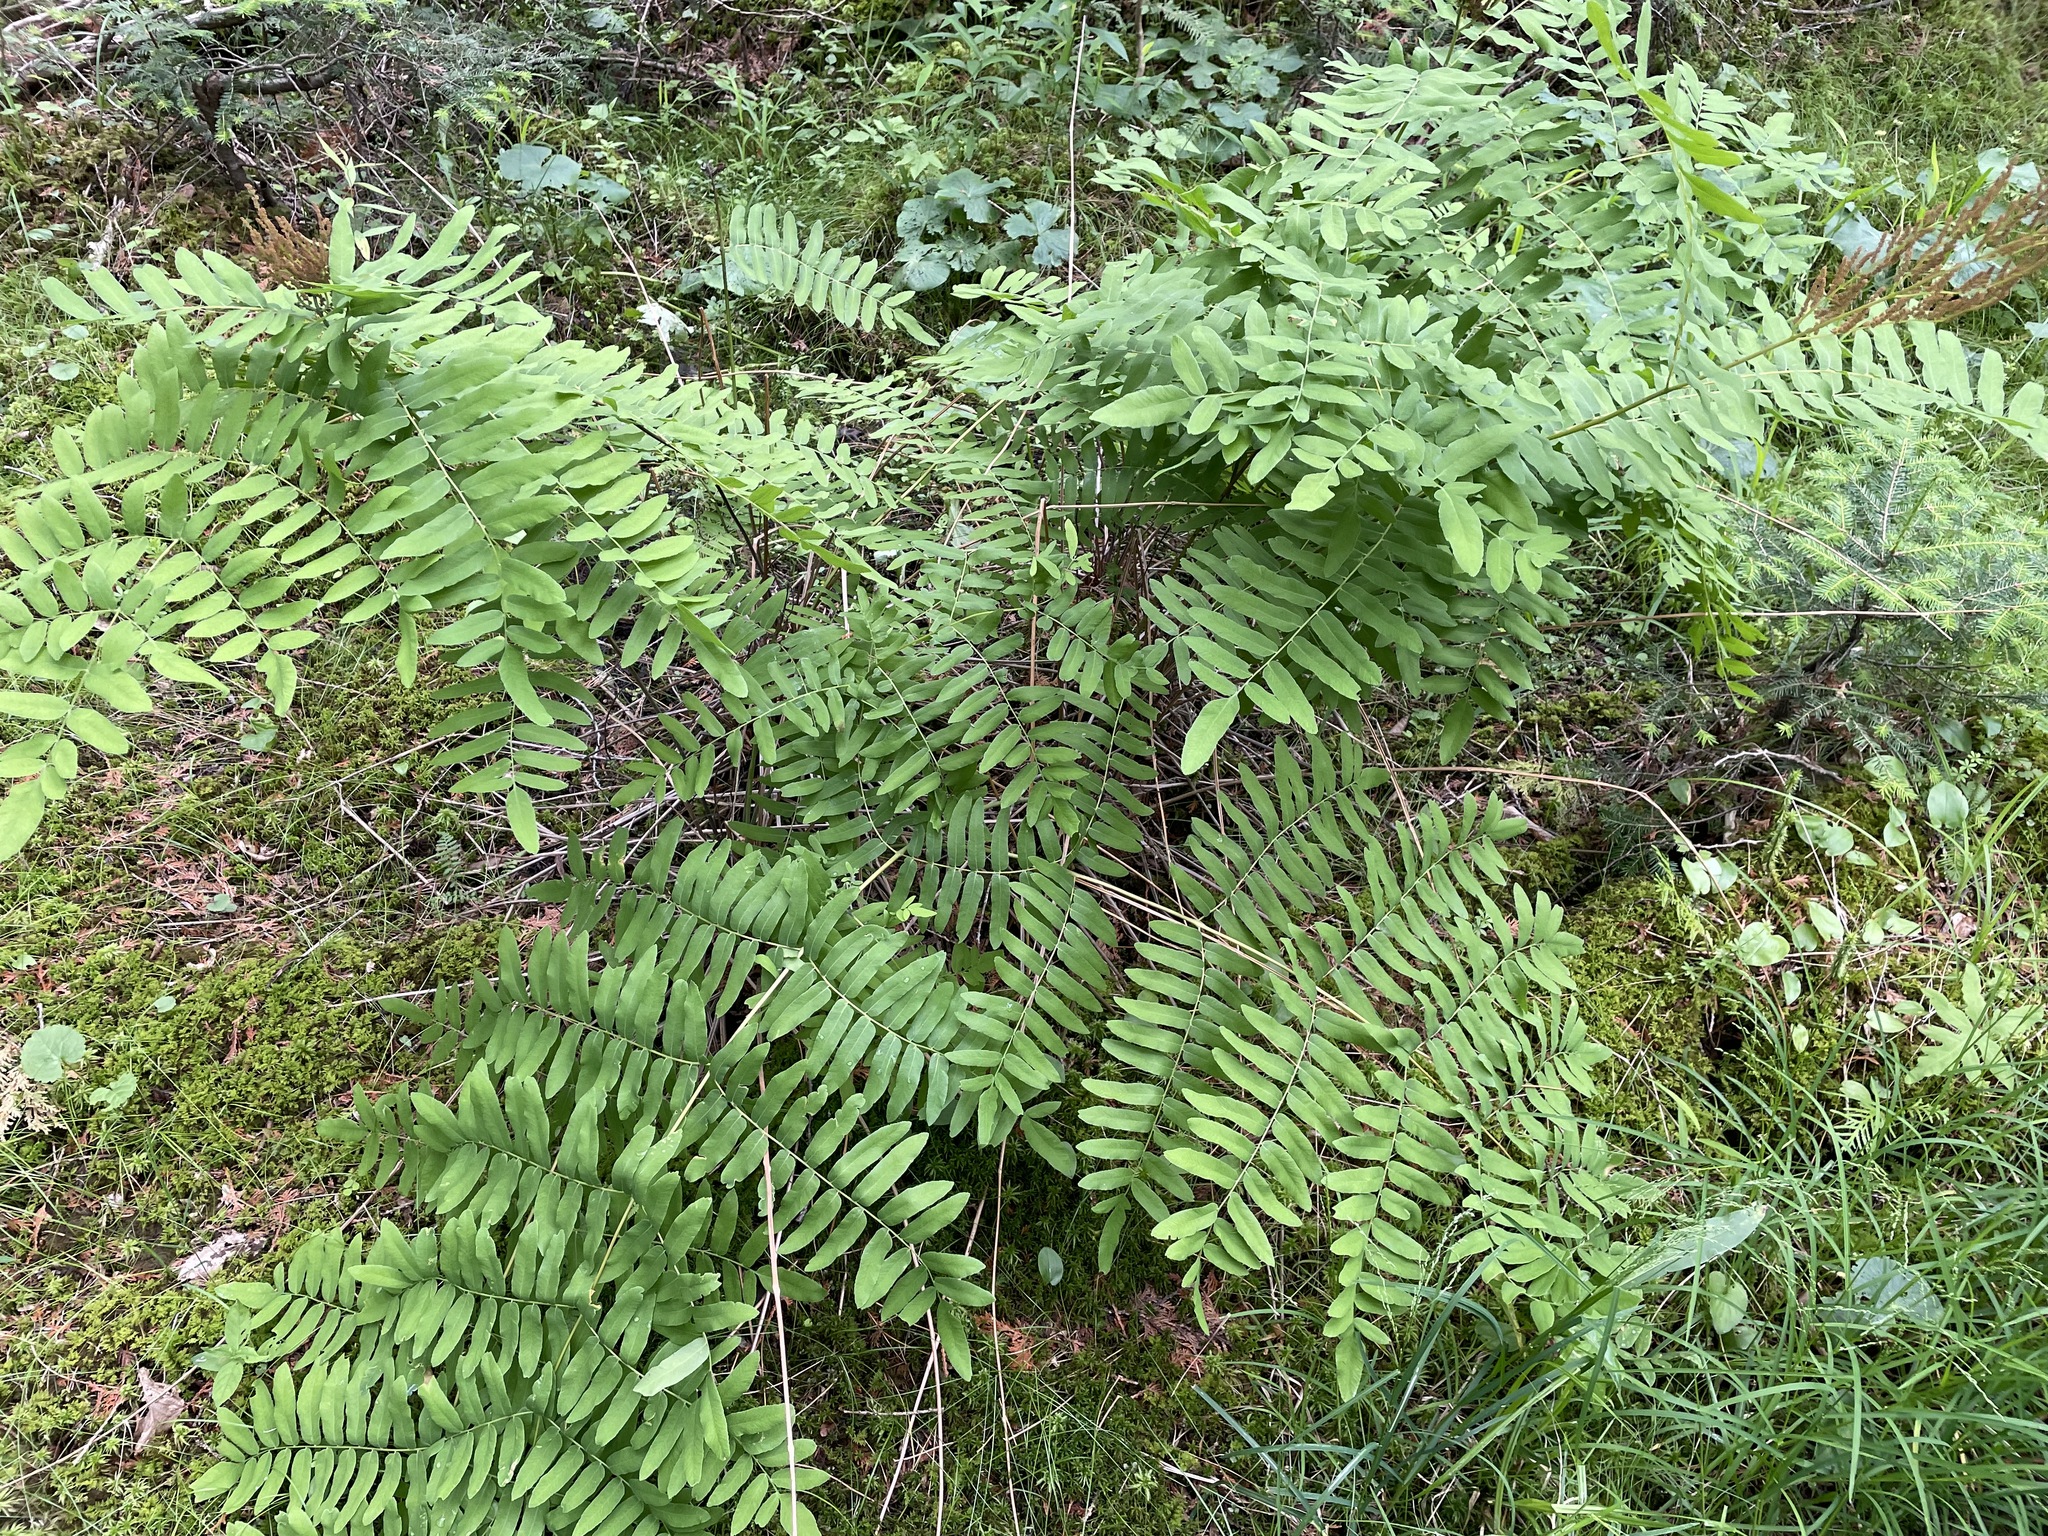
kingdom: Plantae
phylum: Tracheophyta
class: Polypodiopsida
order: Osmundales
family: Osmundaceae
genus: Osmunda
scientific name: Osmunda spectabilis
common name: American royal fern
